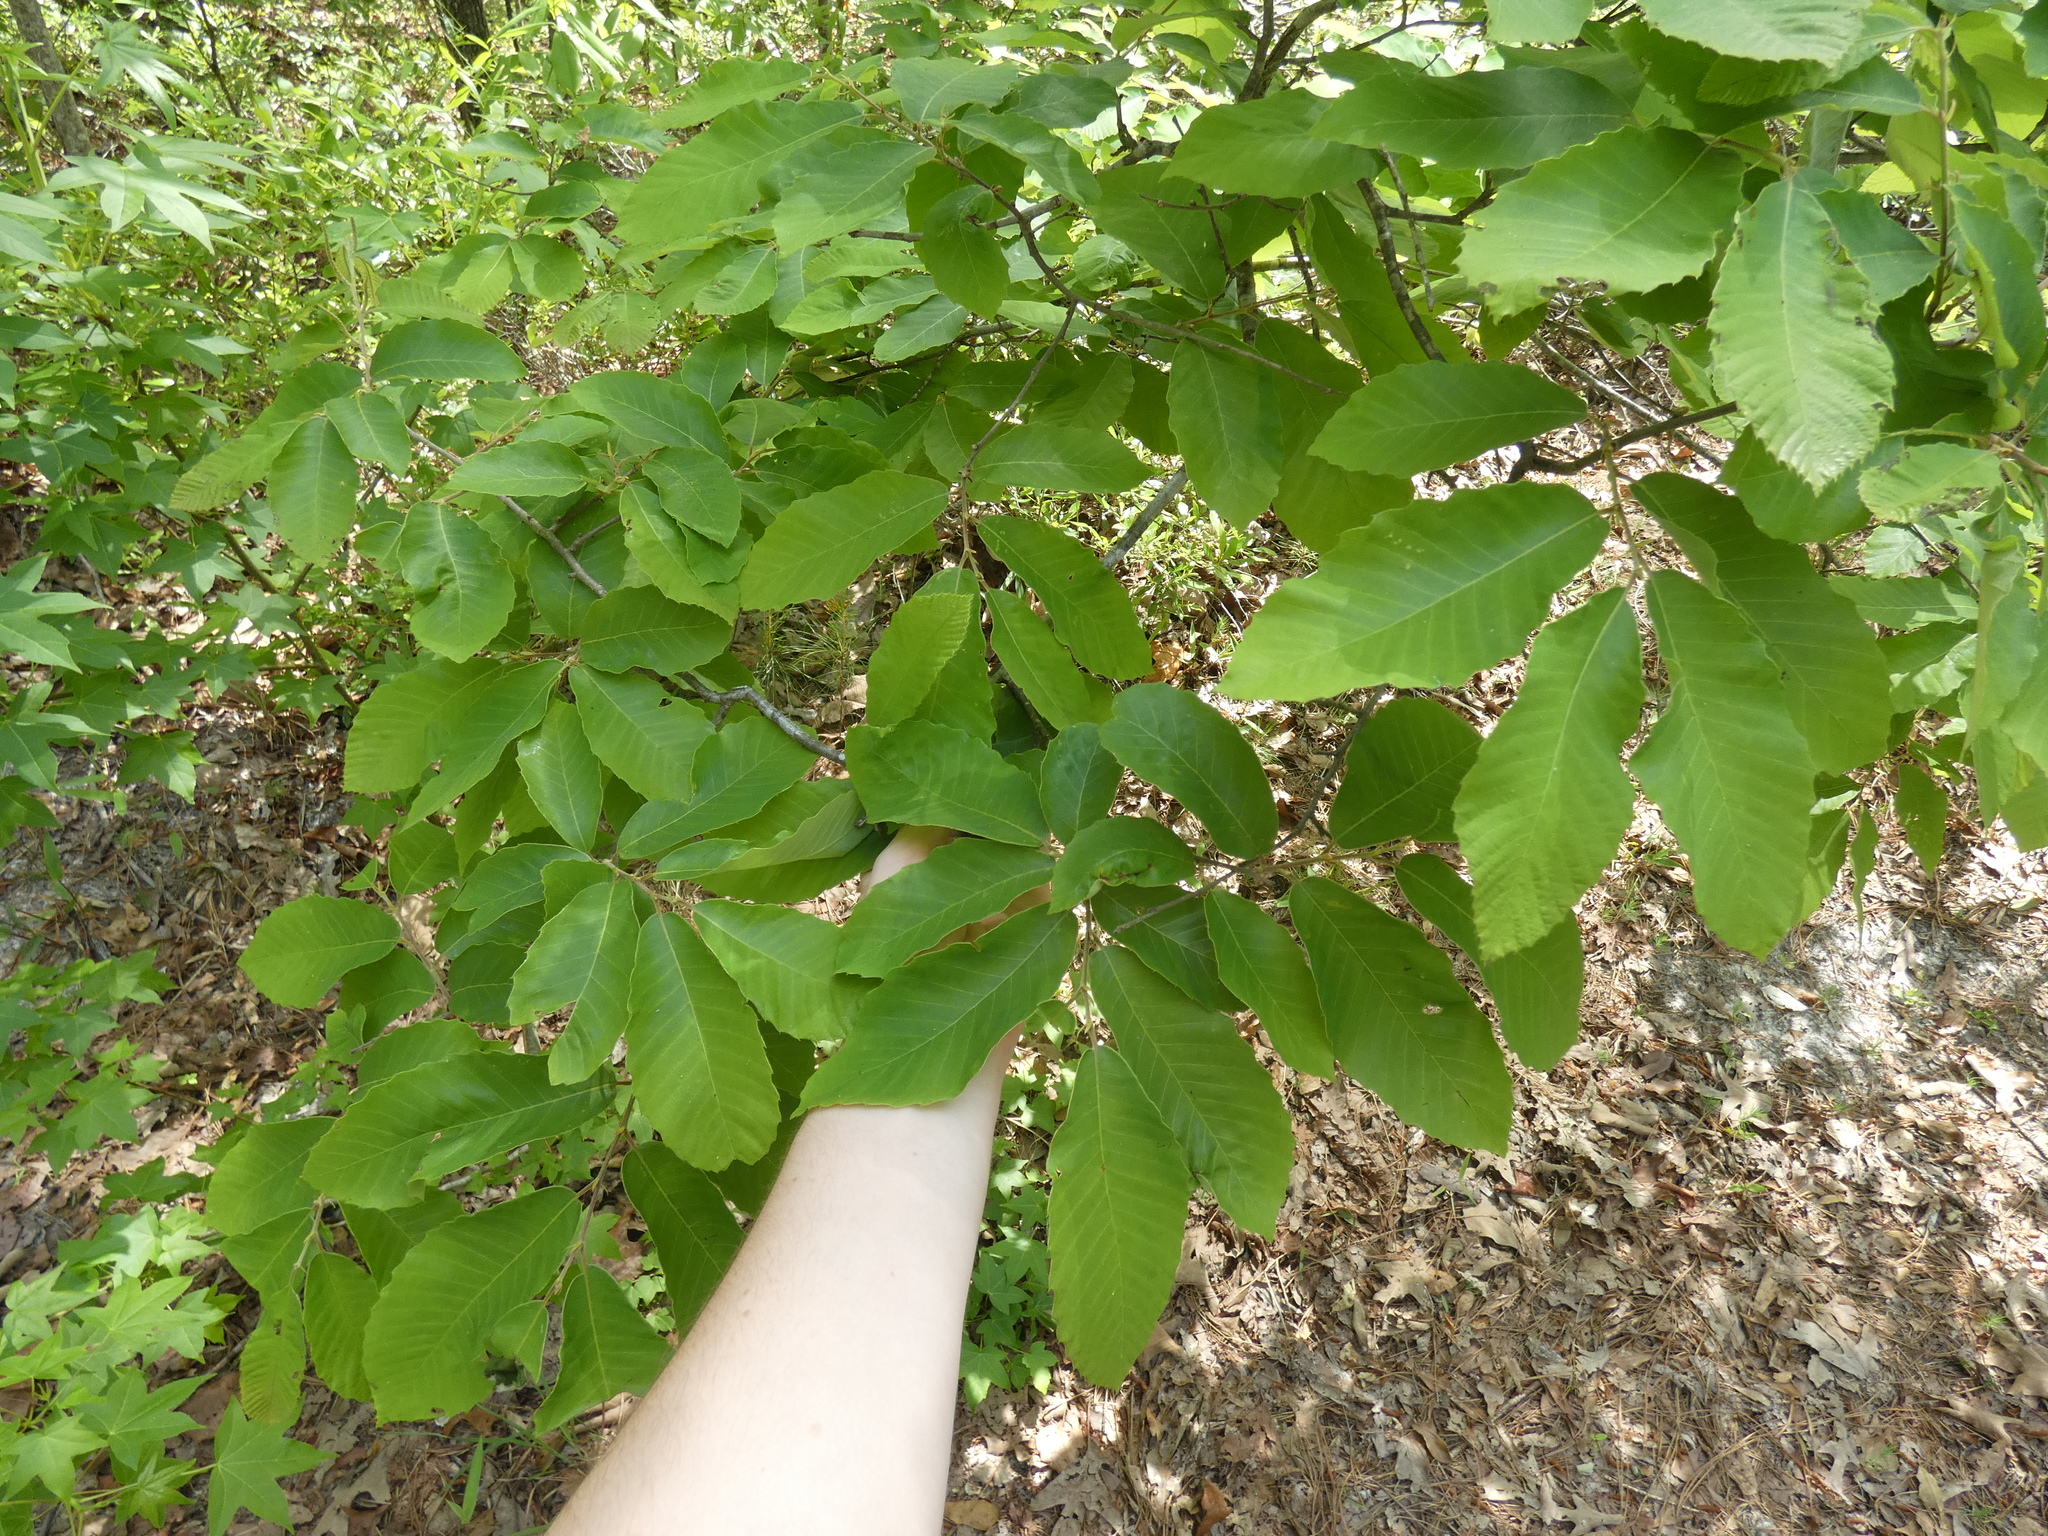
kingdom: Plantae
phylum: Tracheophyta
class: Magnoliopsida
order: Fagales
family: Fagaceae
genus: Castanea
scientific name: Castanea pumila
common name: Chinkapin
